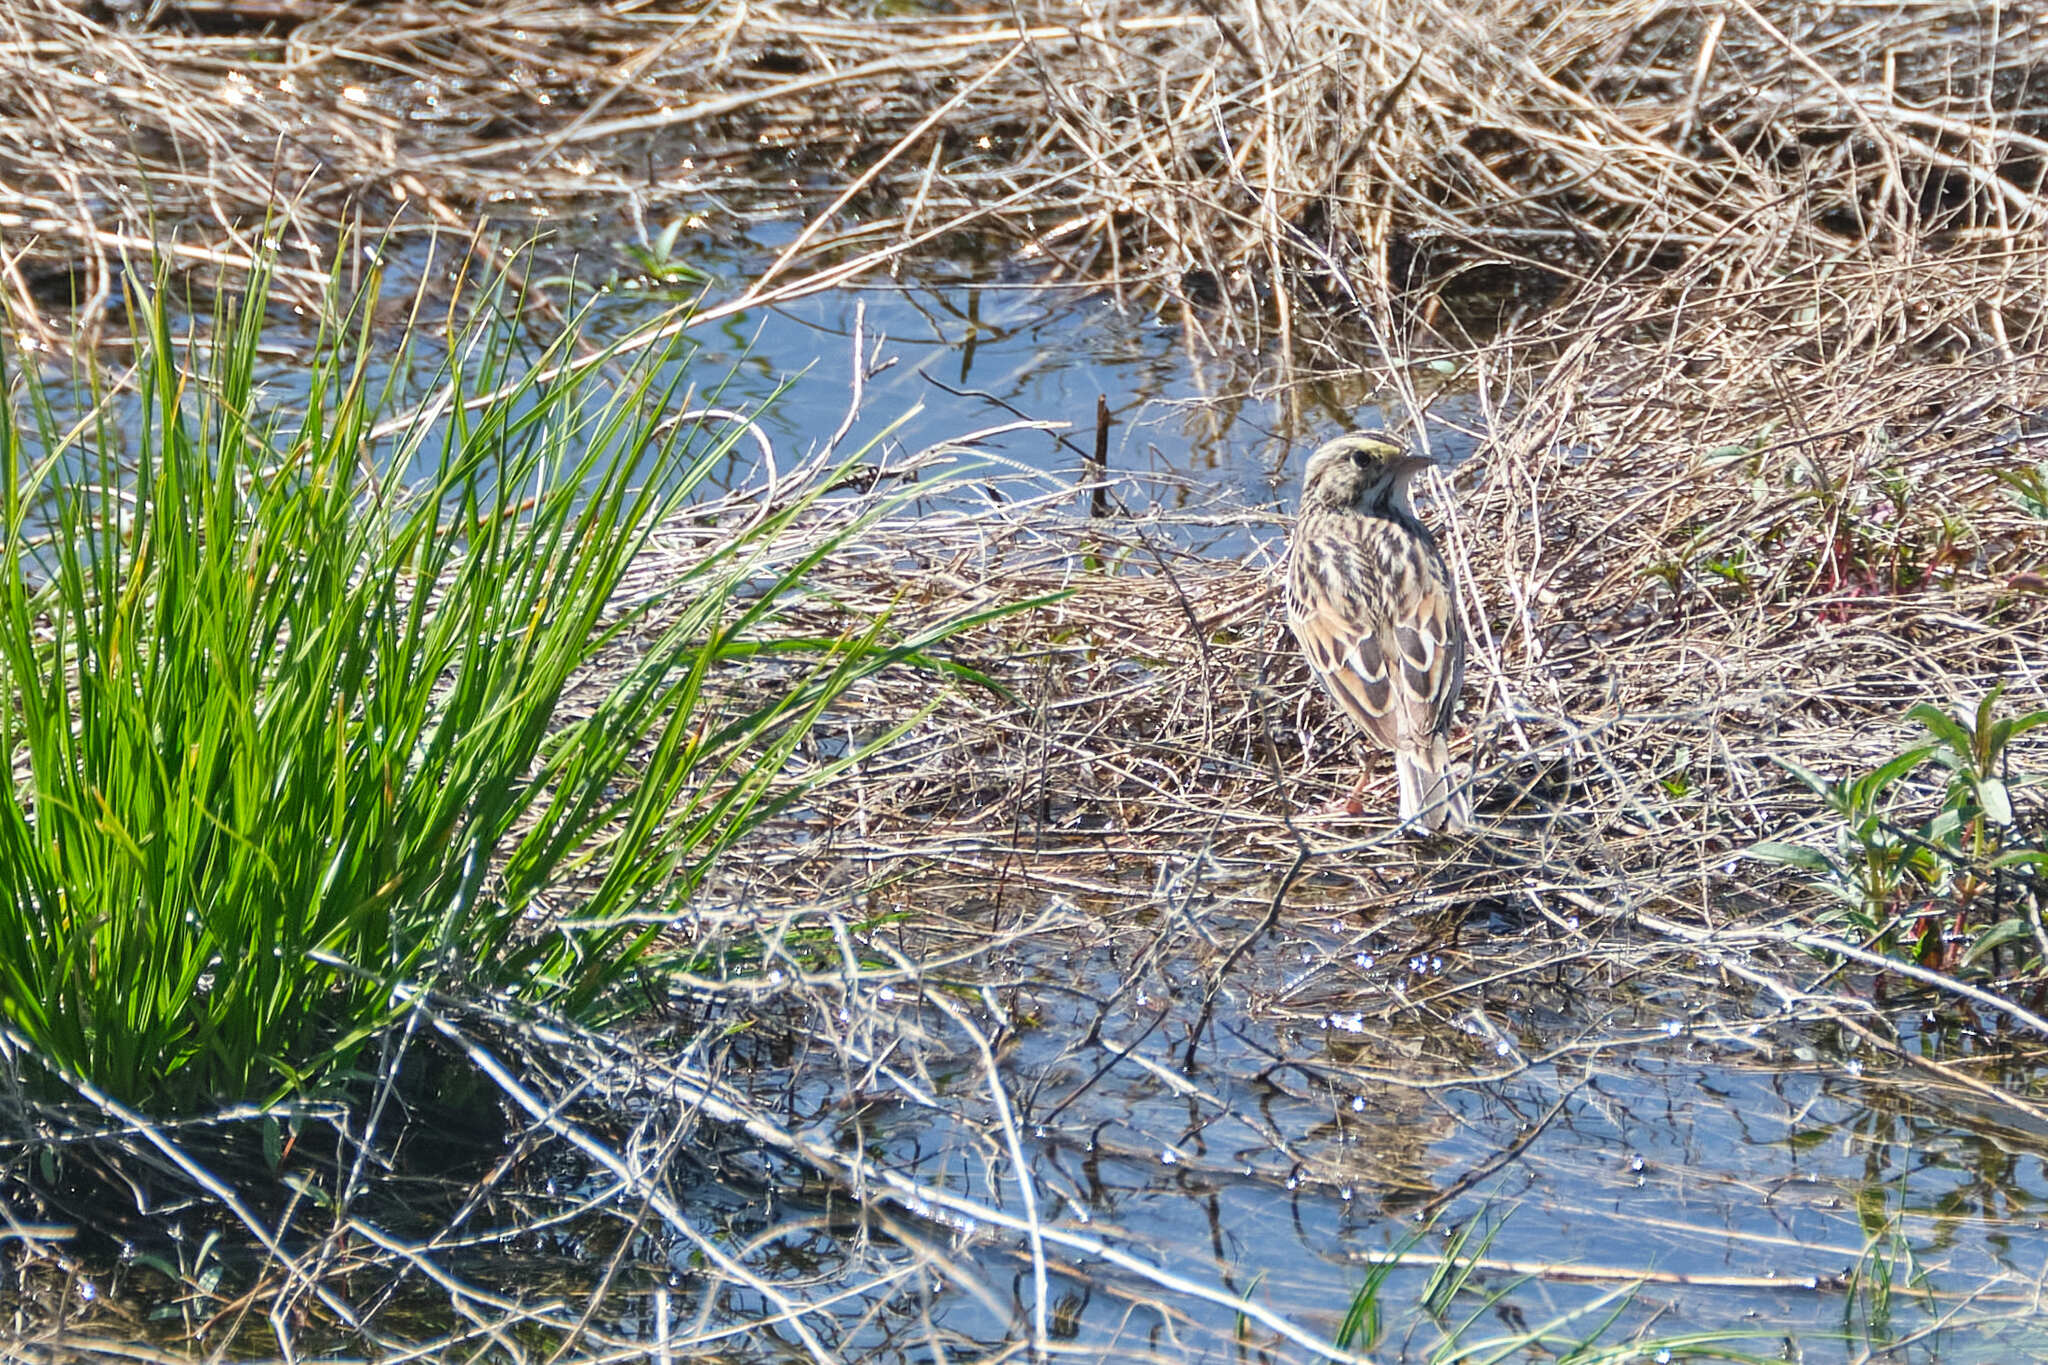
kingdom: Animalia
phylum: Chordata
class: Aves
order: Passeriformes
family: Passerellidae
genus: Passerculus
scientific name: Passerculus sandwichensis
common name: Savannah sparrow
